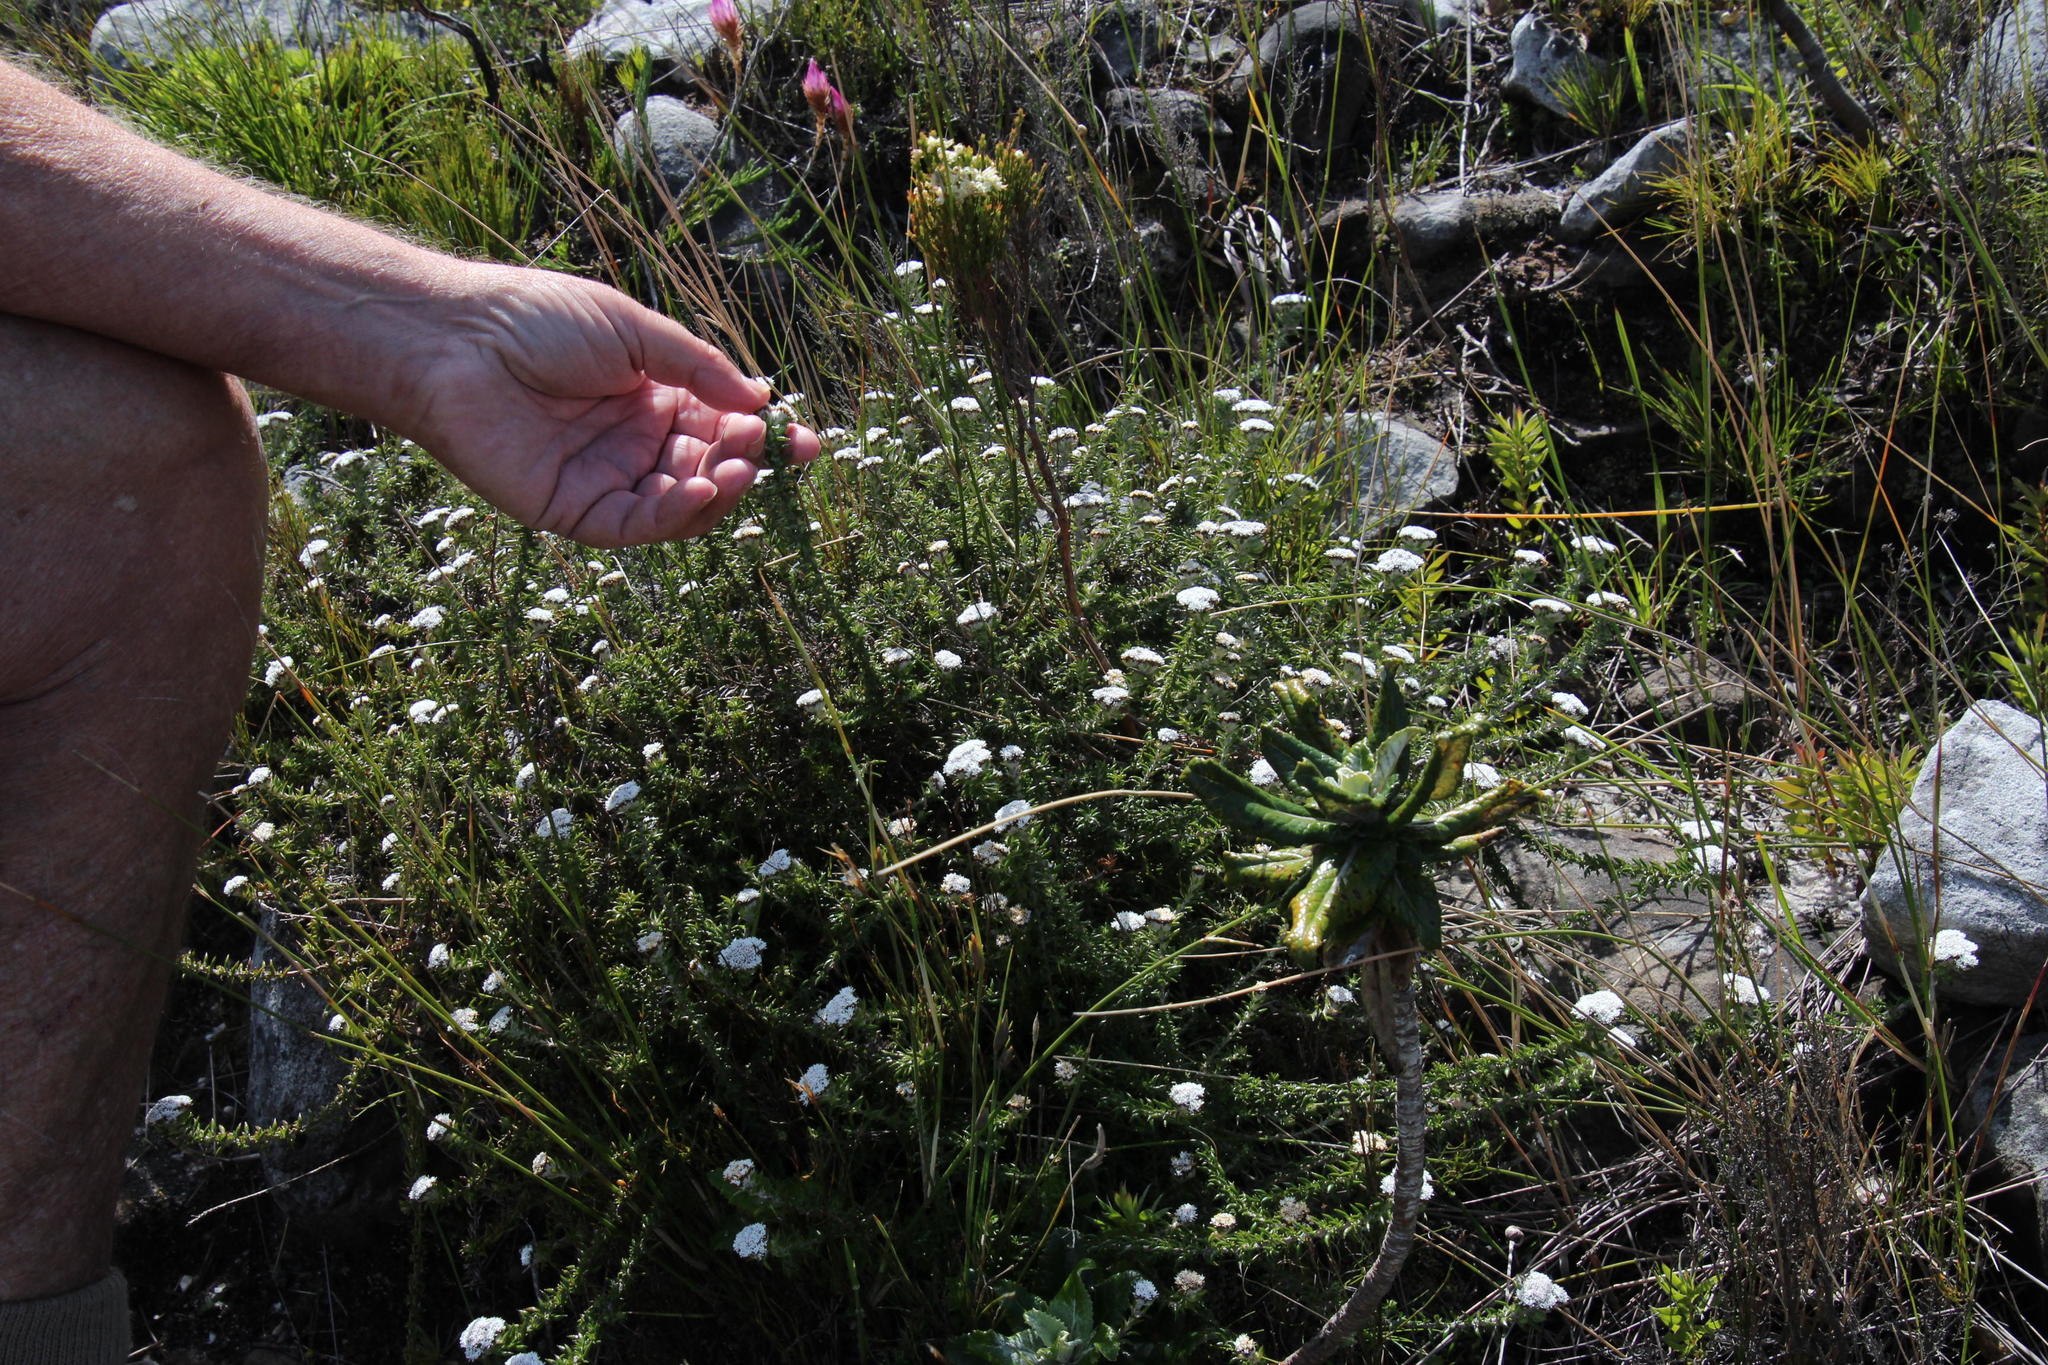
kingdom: Plantae
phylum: Tracheophyta
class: Magnoliopsida
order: Asterales
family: Asteraceae
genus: Metalasia
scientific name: Metalasia divergens
